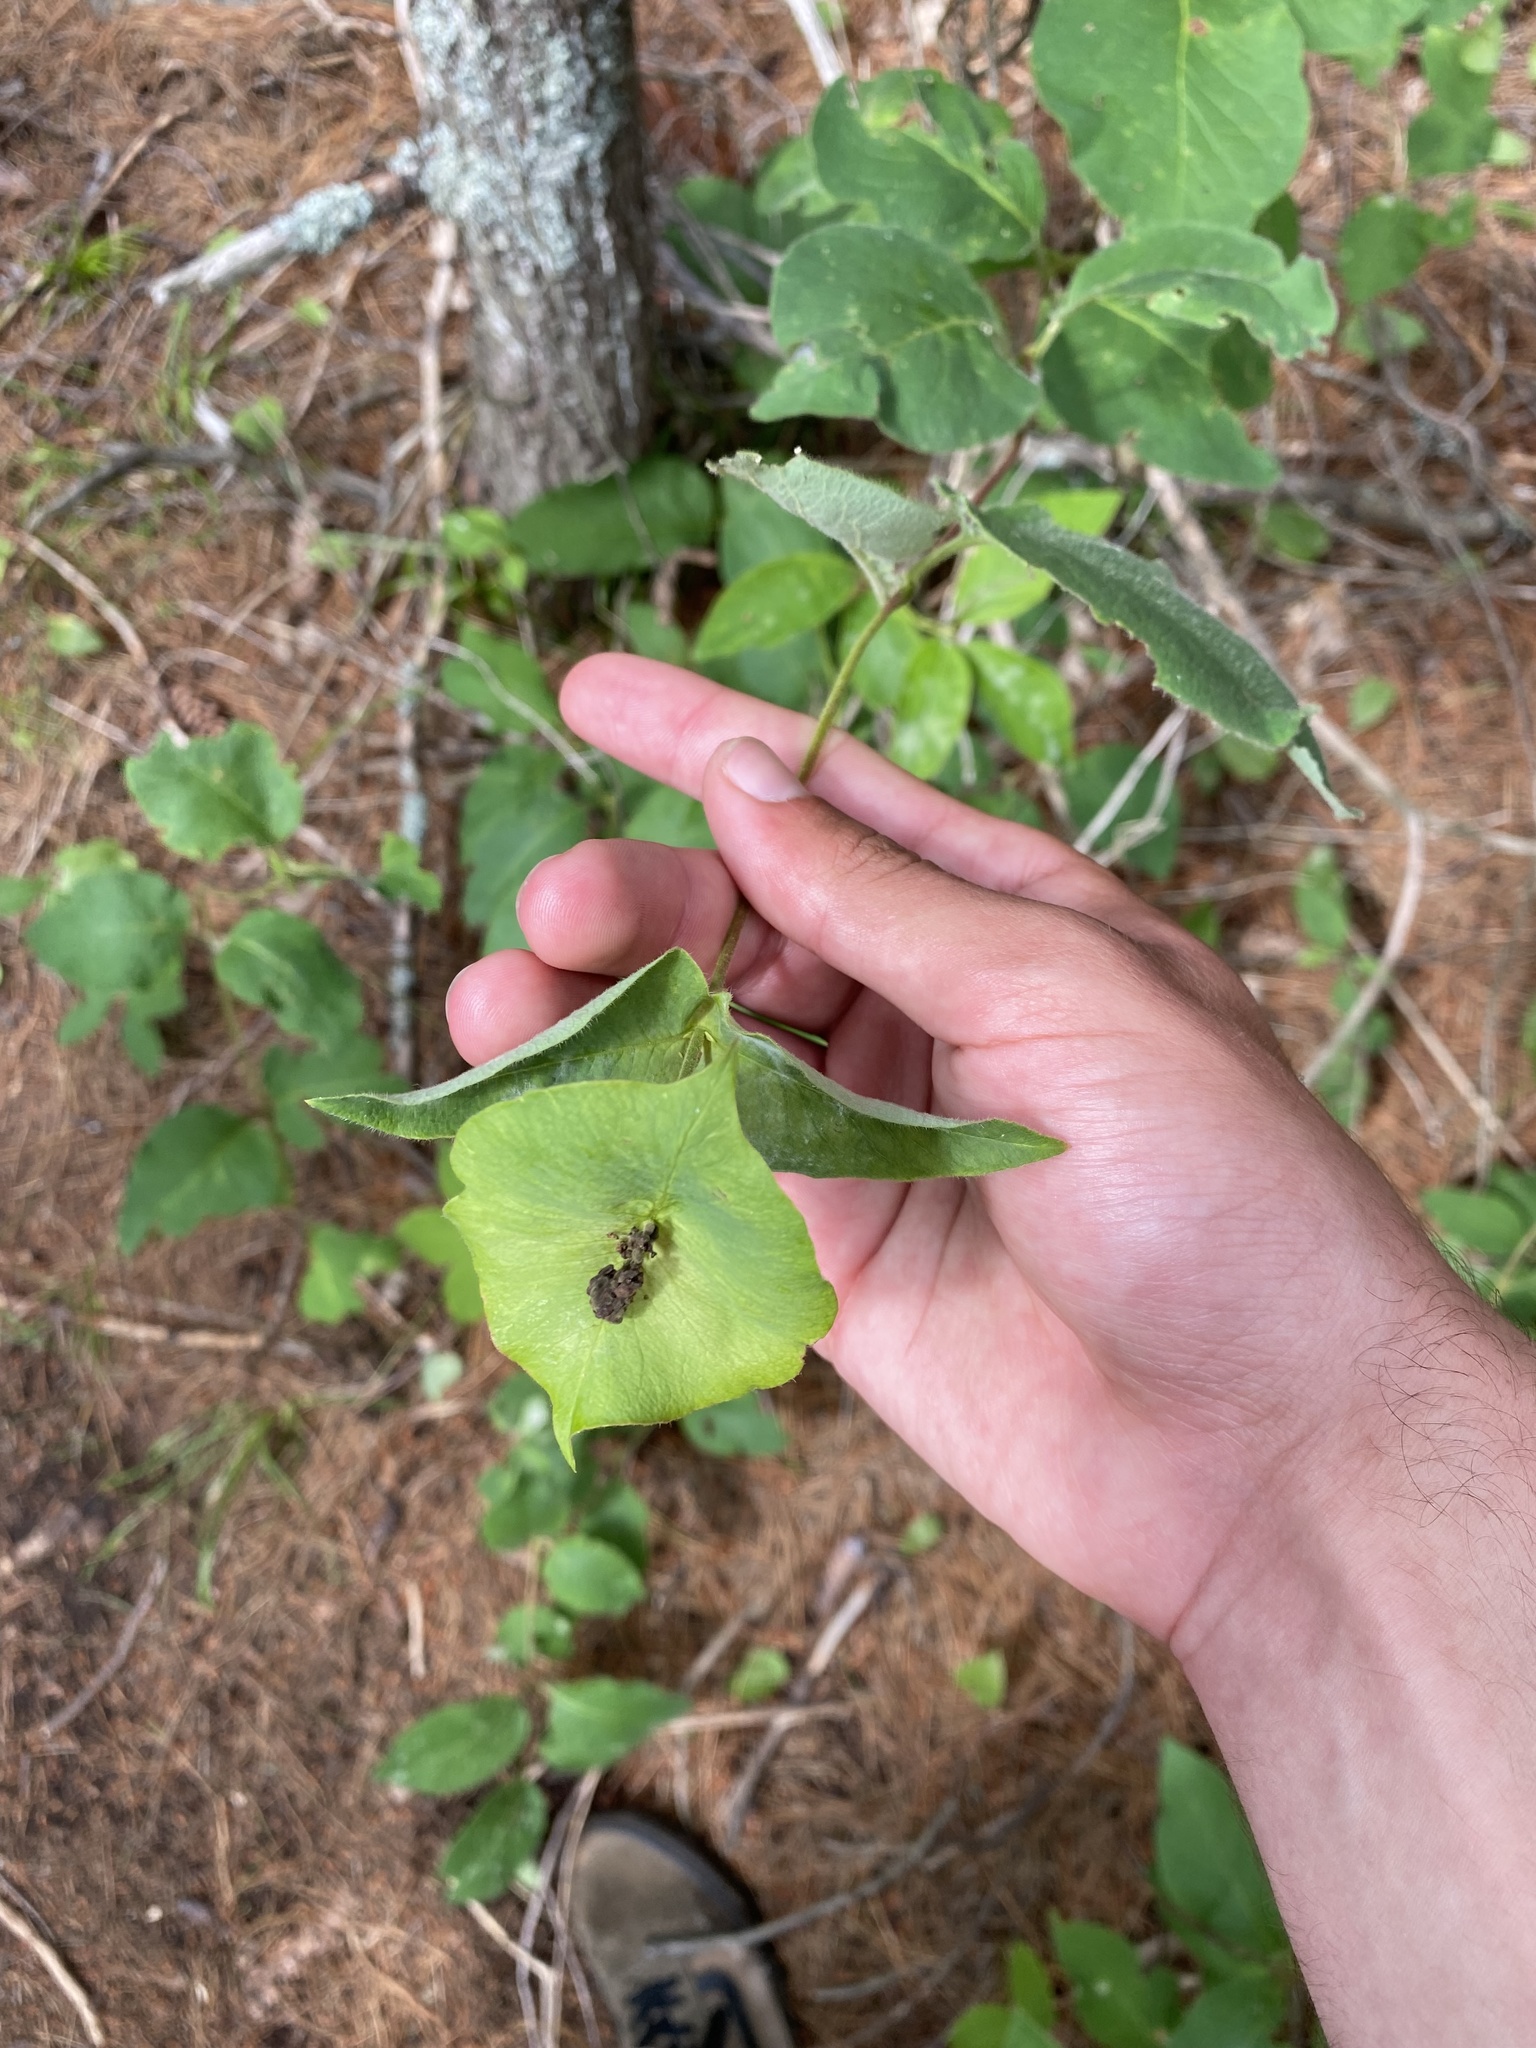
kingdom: Plantae
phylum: Tracheophyta
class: Magnoliopsida
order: Dipsacales
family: Caprifoliaceae
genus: Lonicera
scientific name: Lonicera hirsuta
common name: Hairy honeysuckle
